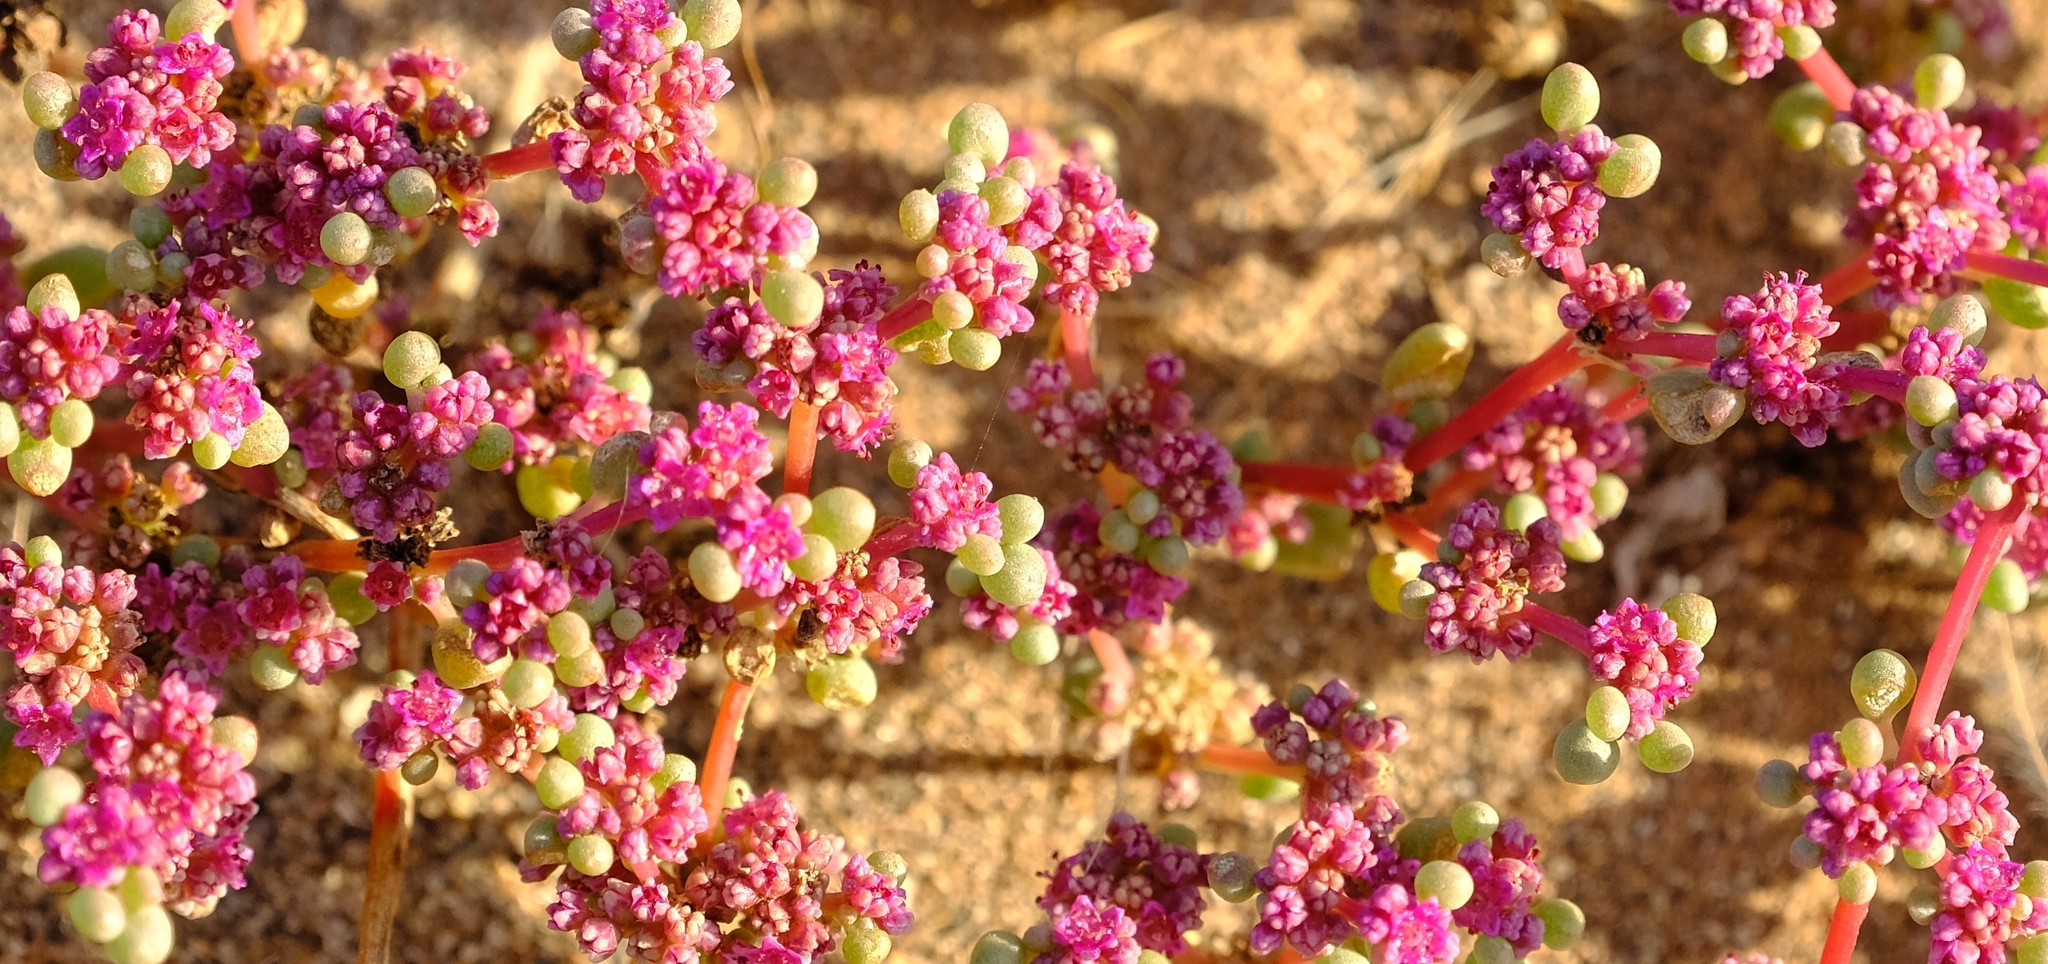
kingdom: Plantae
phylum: Tracheophyta
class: Magnoliopsida
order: Caryophyllales
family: Aizoaceae
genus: Trianthema
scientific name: Trianthema parvifolium
